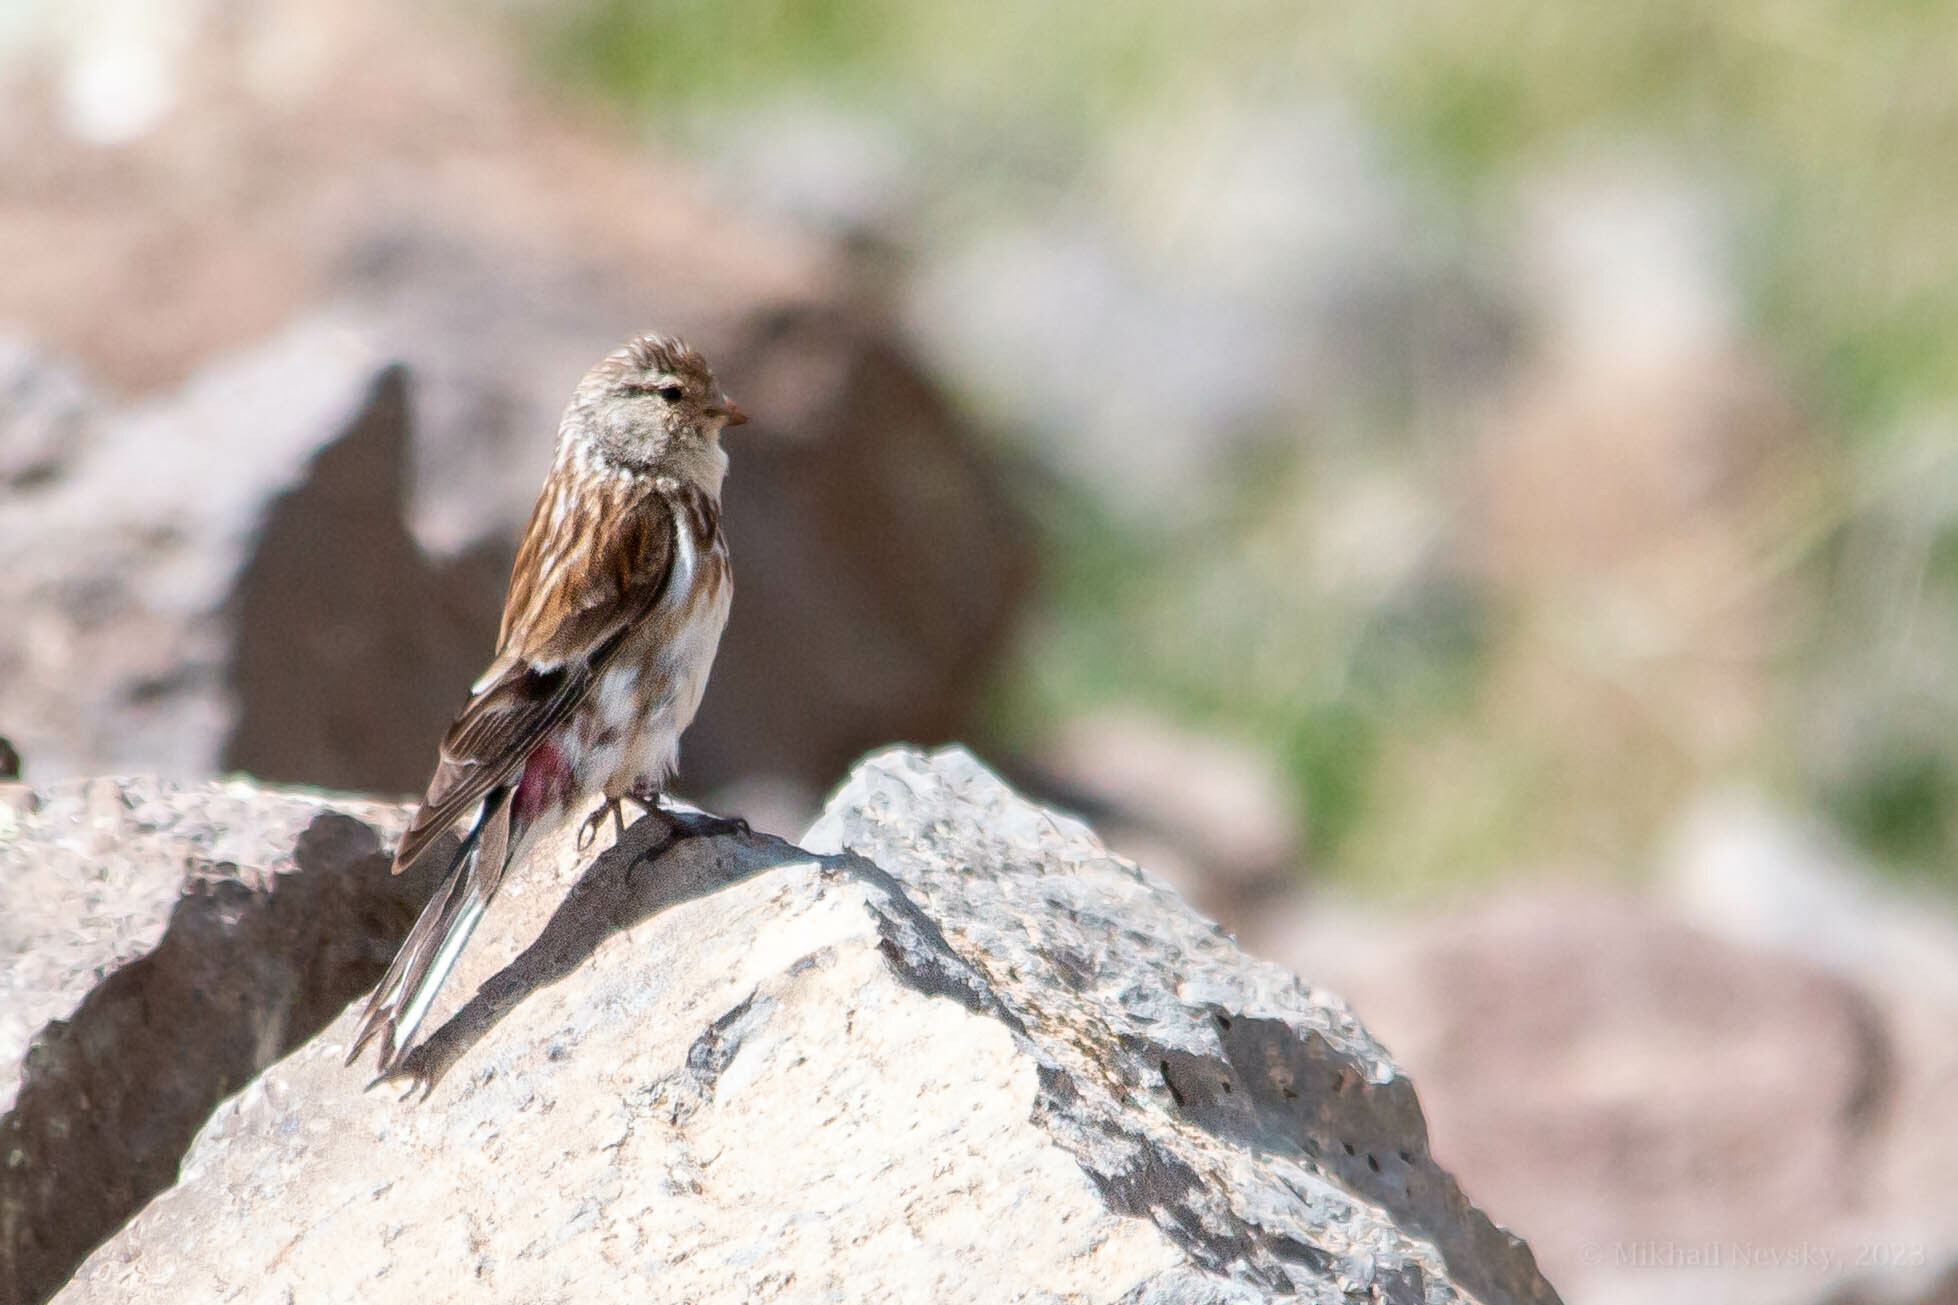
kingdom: Animalia
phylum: Chordata
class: Aves
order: Passeriformes
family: Fringillidae
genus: Linaria
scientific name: Linaria flavirostris
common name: Twite
